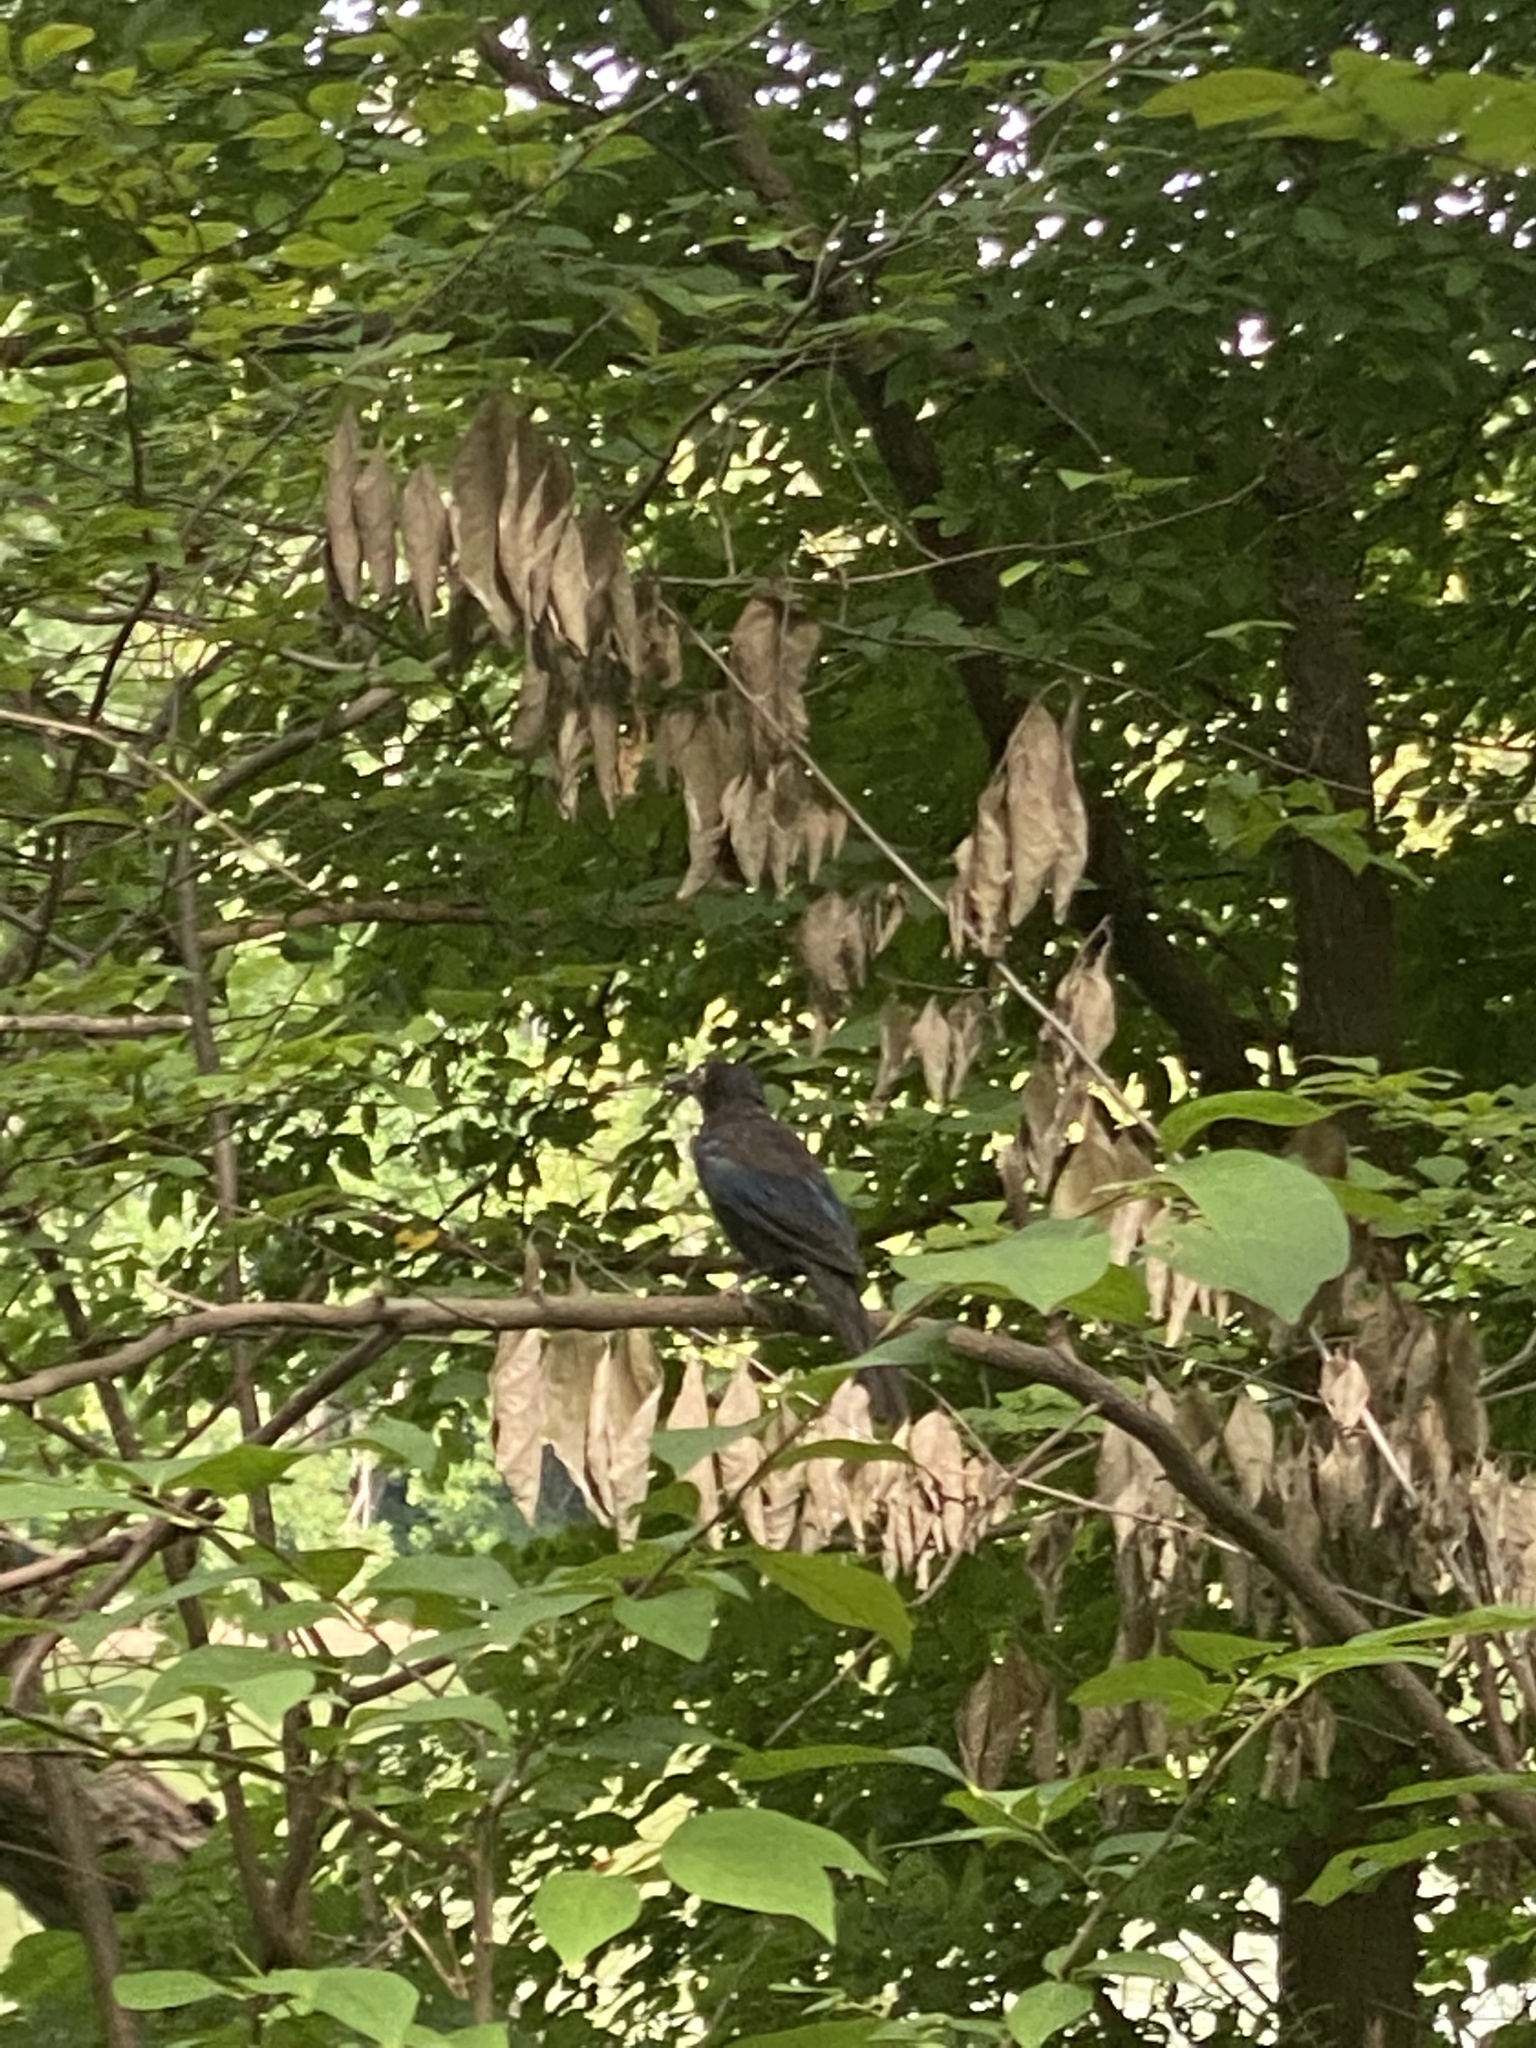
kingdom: Animalia
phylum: Chordata
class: Aves
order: Passeriformes
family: Icteridae
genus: Quiscalus
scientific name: Quiscalus quiscula
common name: Common grackle
